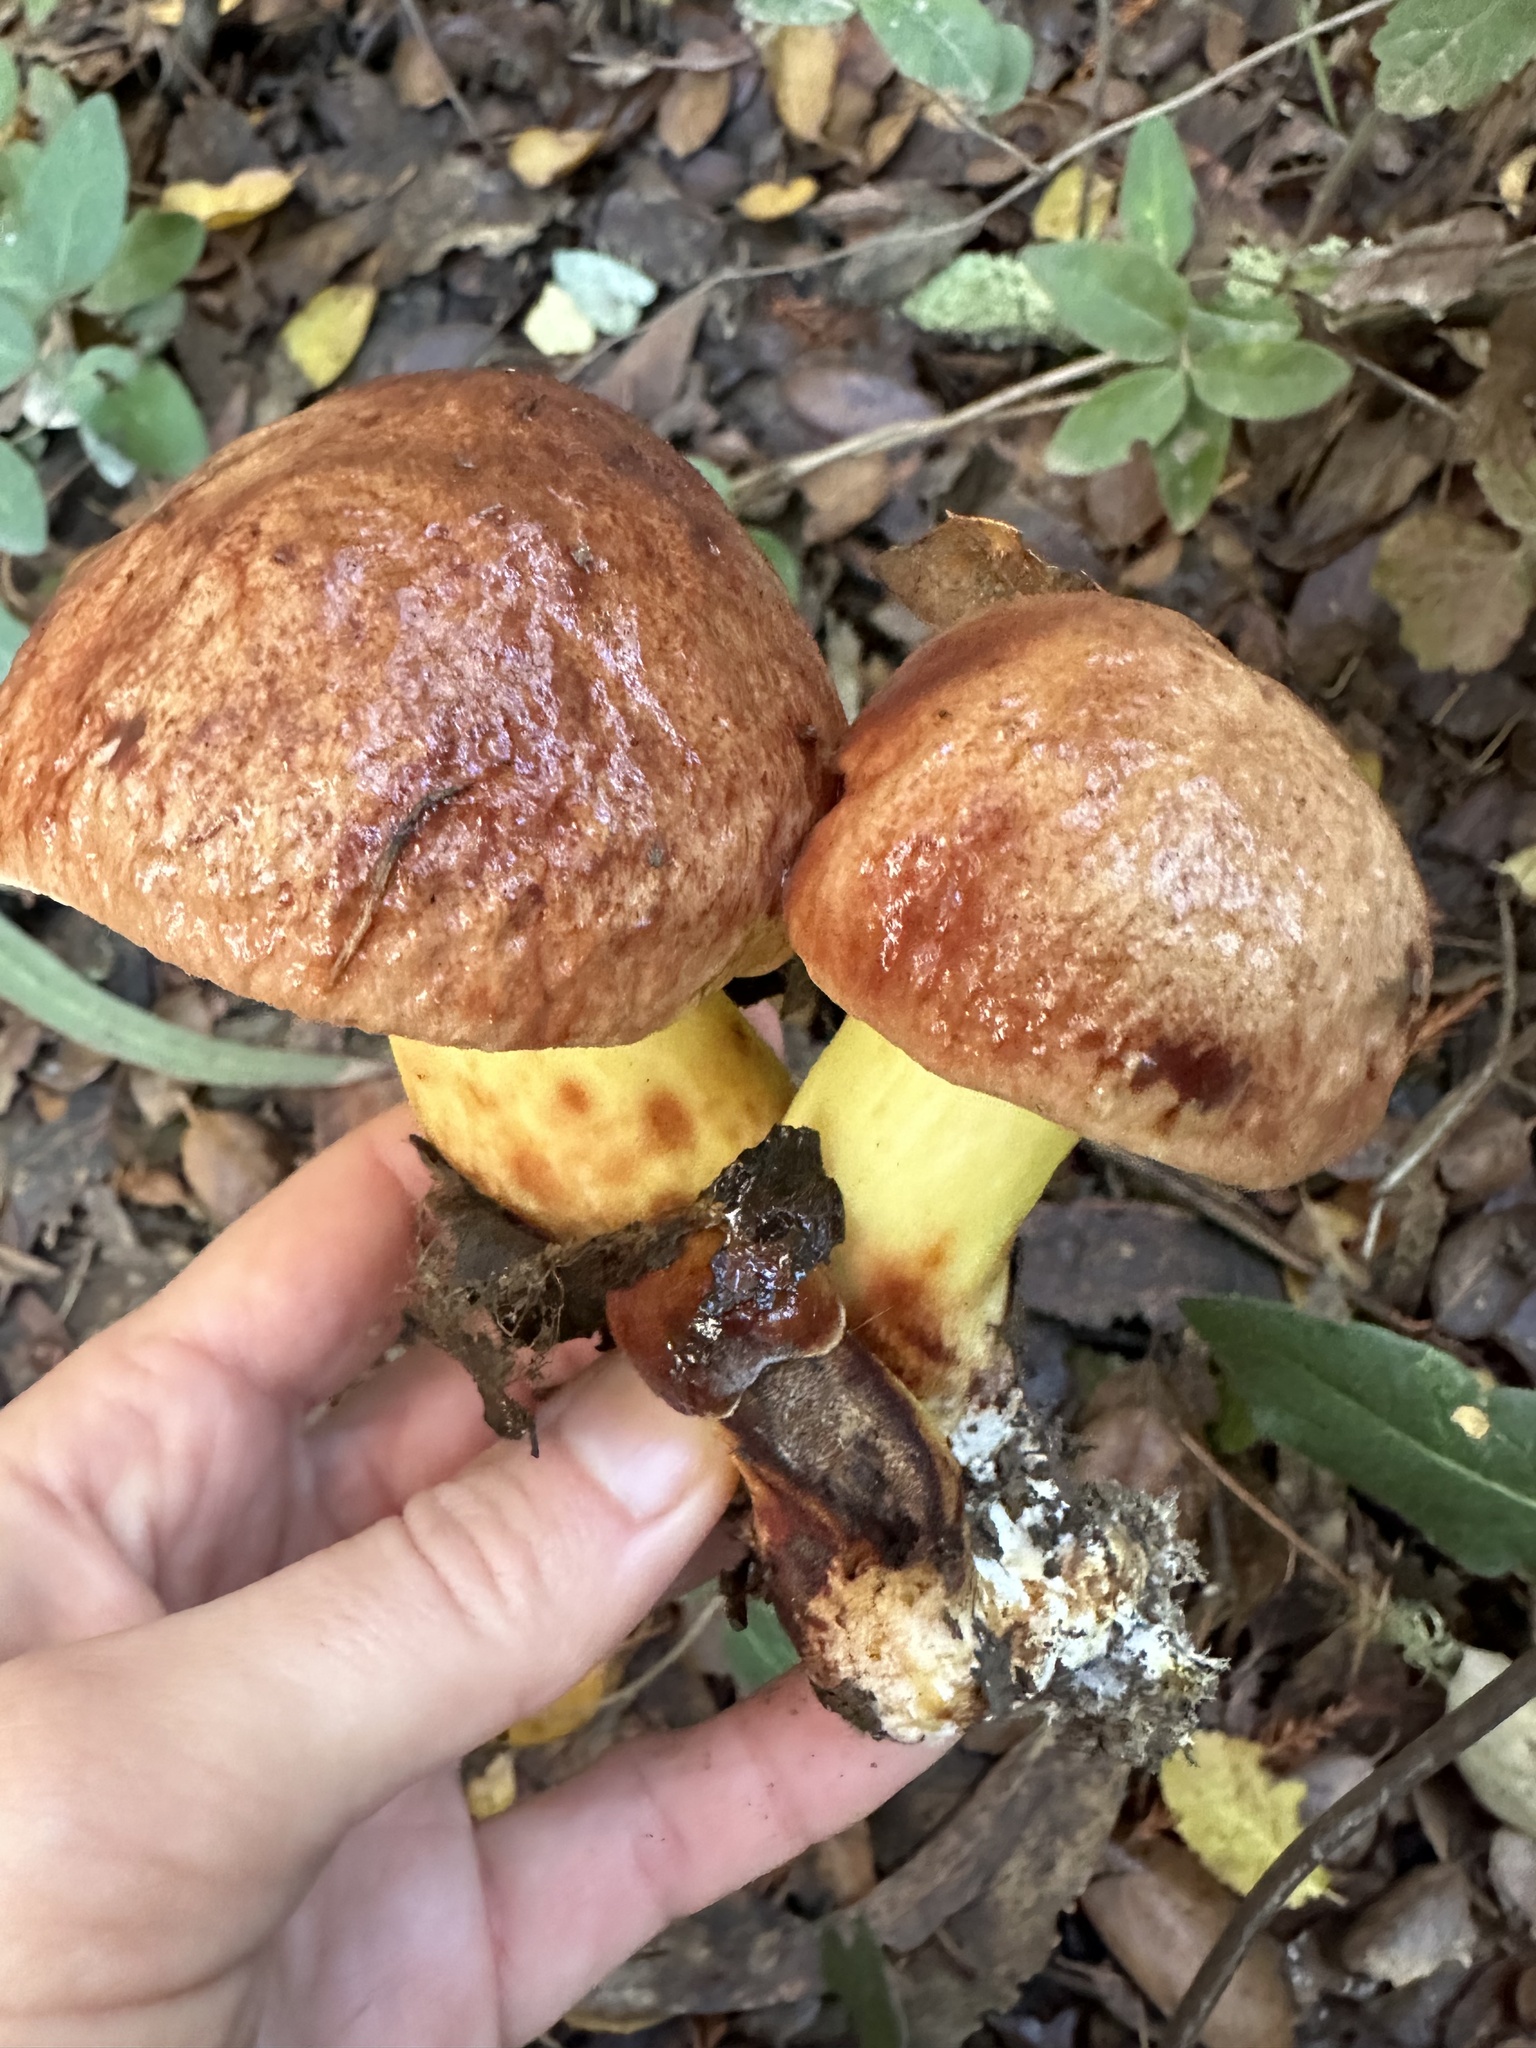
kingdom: Fungi
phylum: Basidiomycota
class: Agaricomycetes
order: Boletales
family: Boletaceae
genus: Aureoboletus
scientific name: Aureoboletus flaviporus
